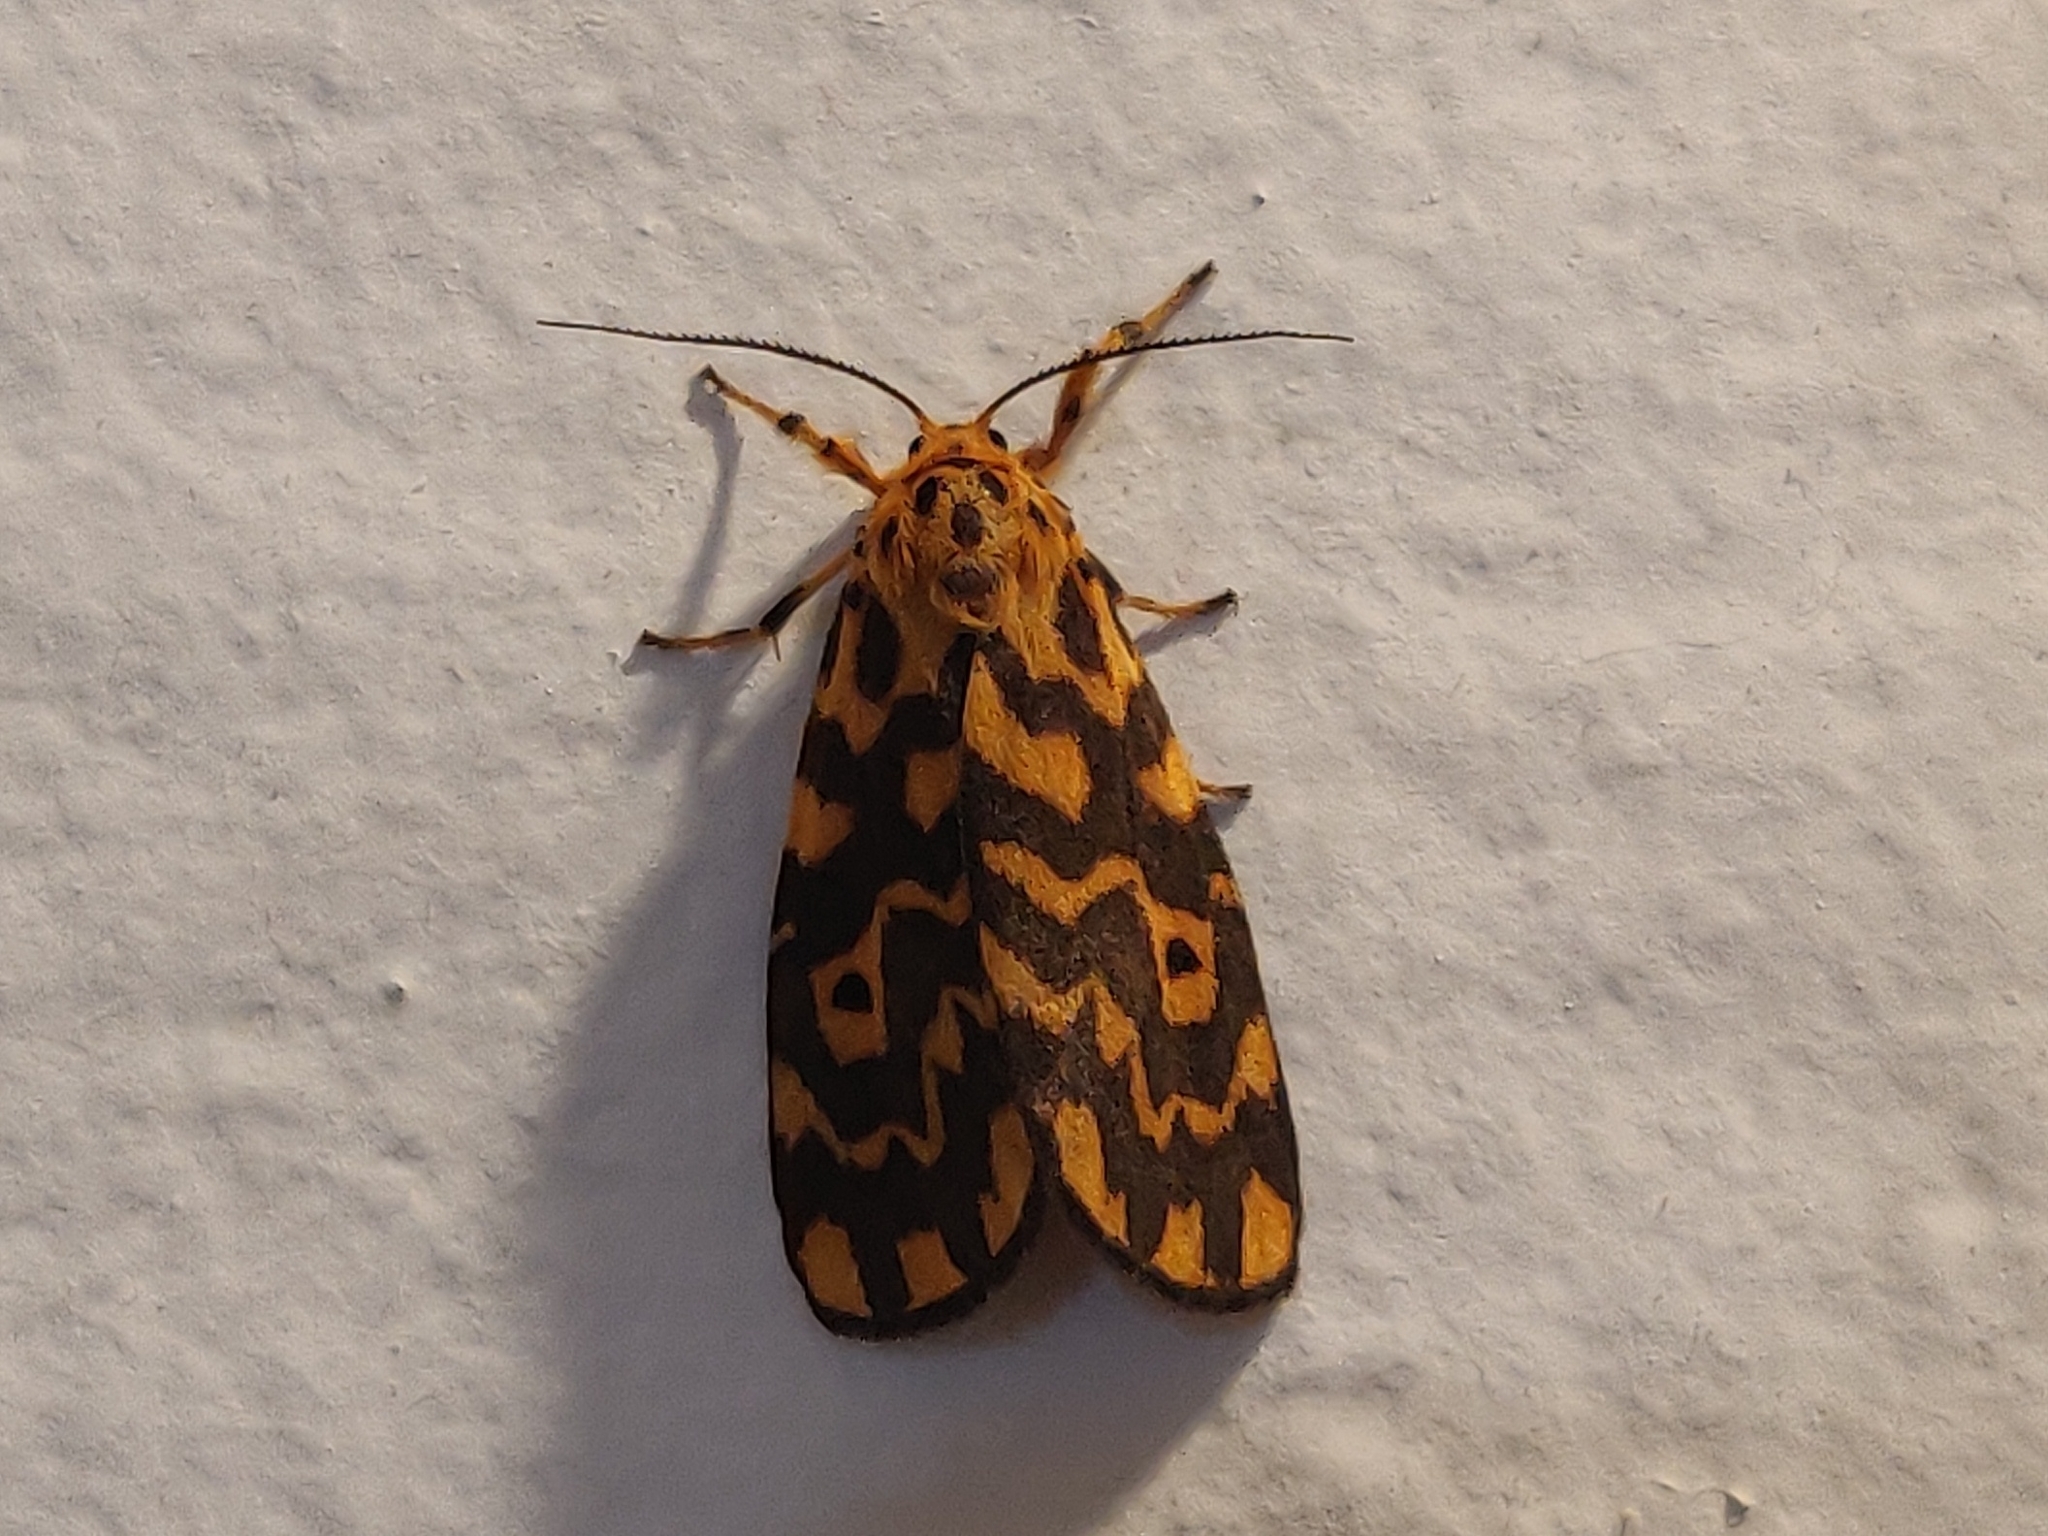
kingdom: Animalia
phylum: Arthropoda
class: Insecta
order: Lepidoptera
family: Erebidae
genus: Nepita
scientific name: Nepita conferta
